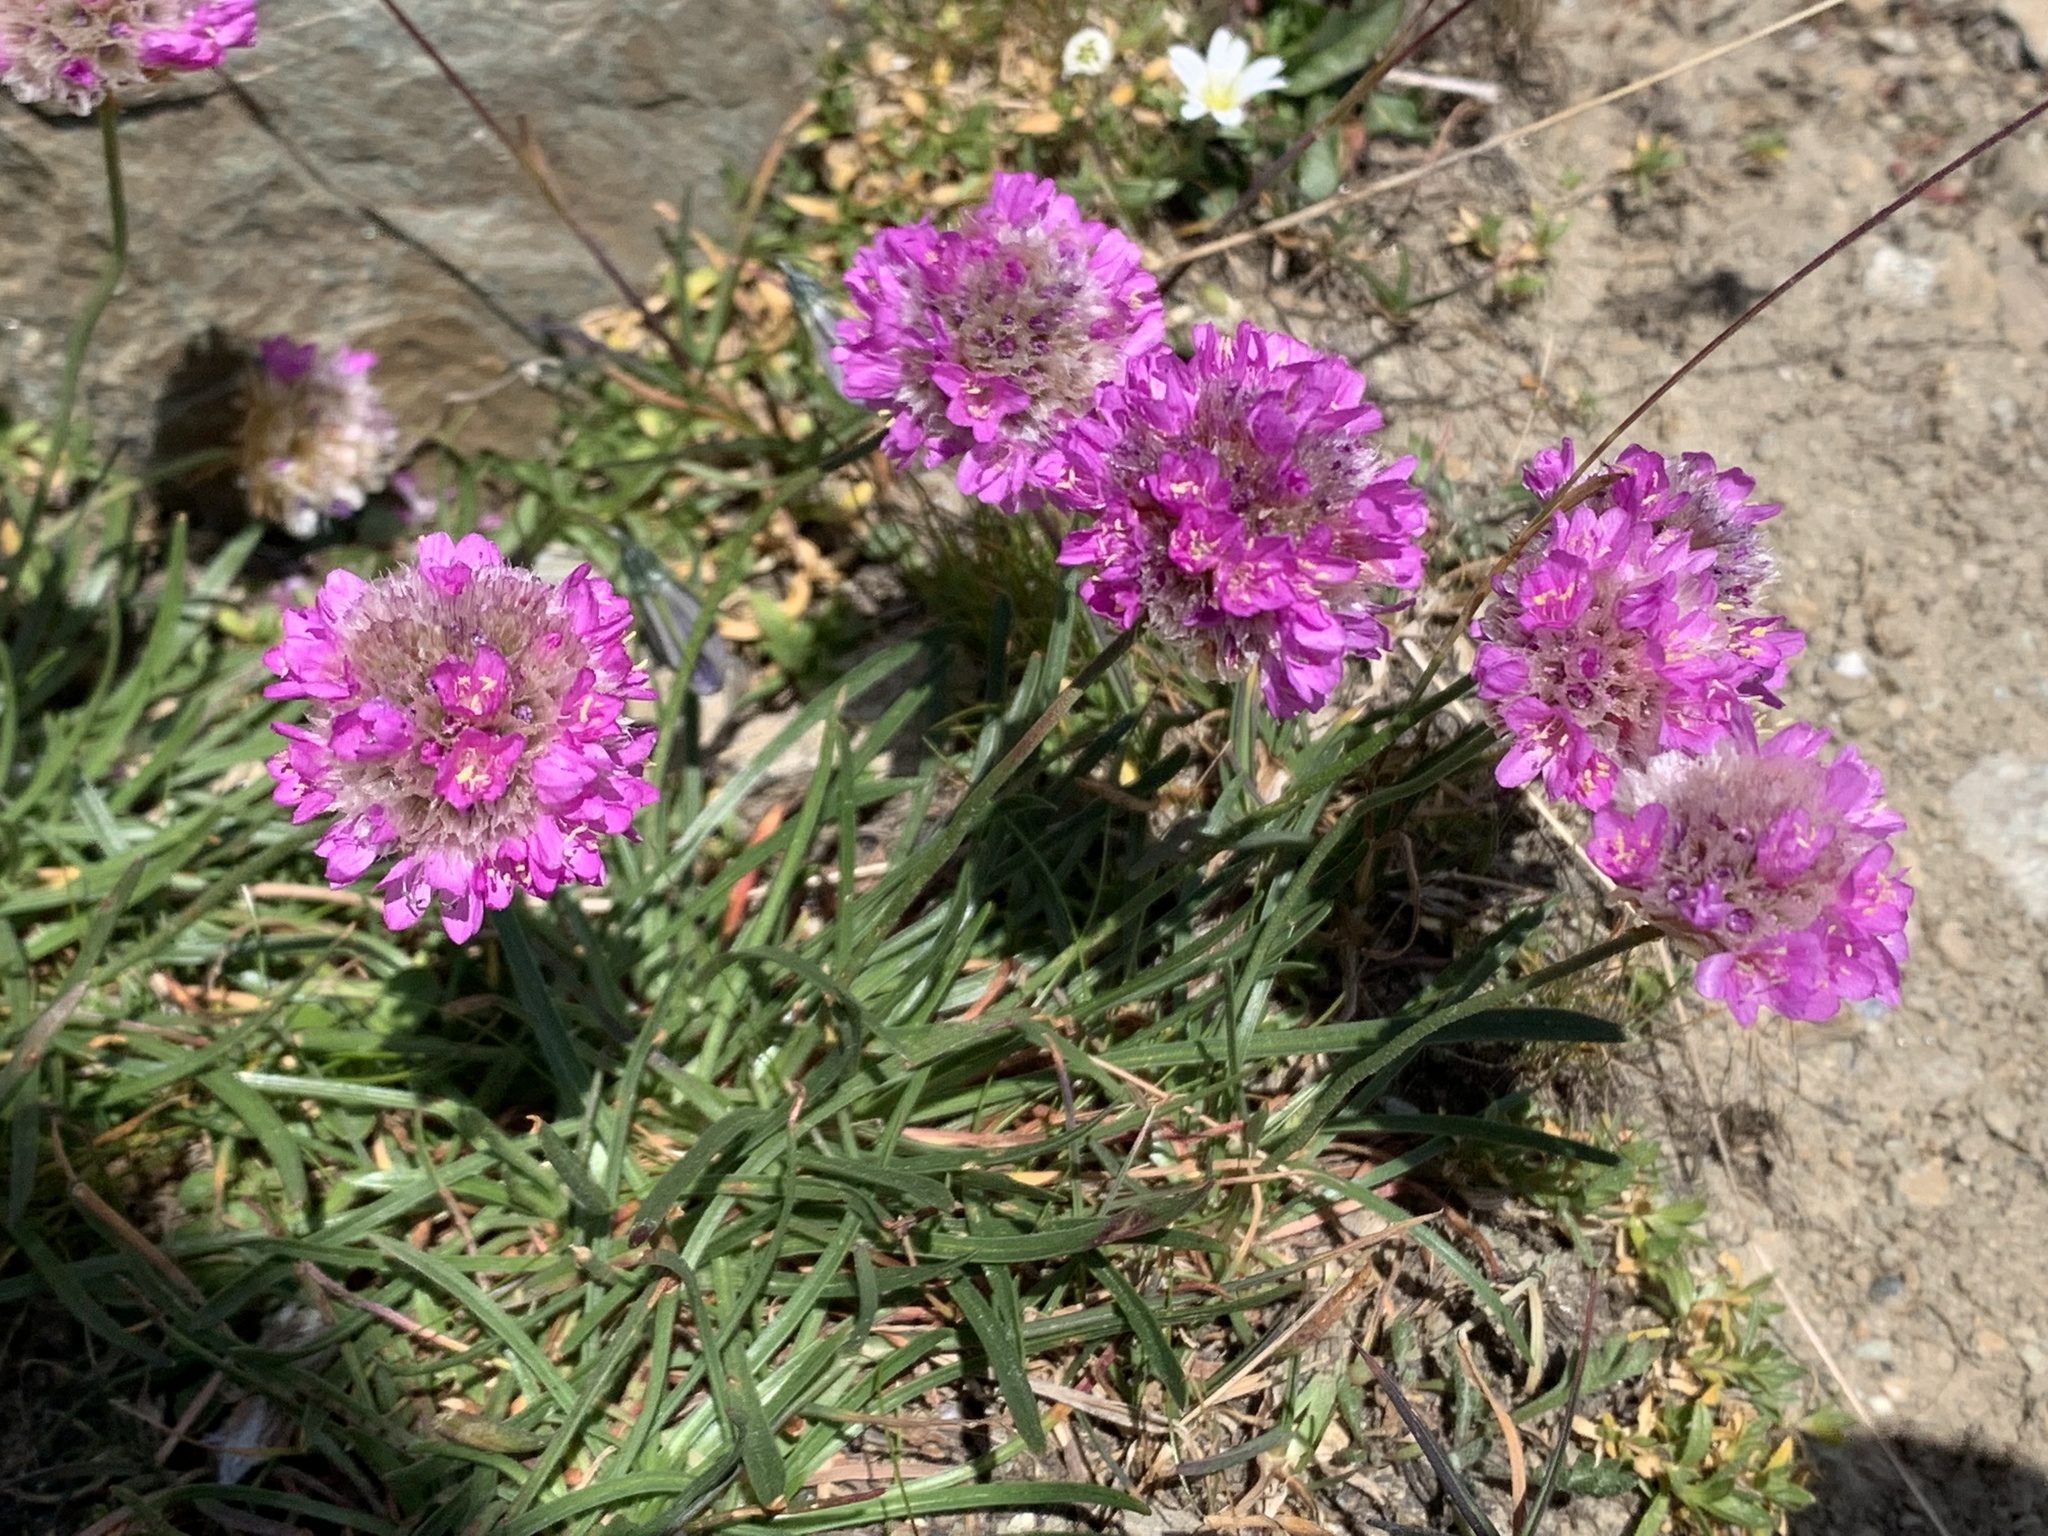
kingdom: Plantae
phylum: Tracheophyta
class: Magnoliopsida
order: Caryophyllales
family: Plumbaginaceae
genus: Armeria
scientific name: Armeria alpina
